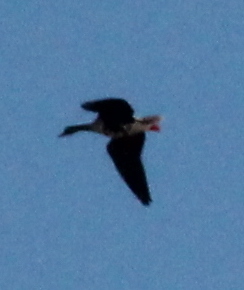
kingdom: Animalia
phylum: Chordata
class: Aves
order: Anseriformes
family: Anatidae
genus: Anser
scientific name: Anser albifrons
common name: Greater white-fronted goose
